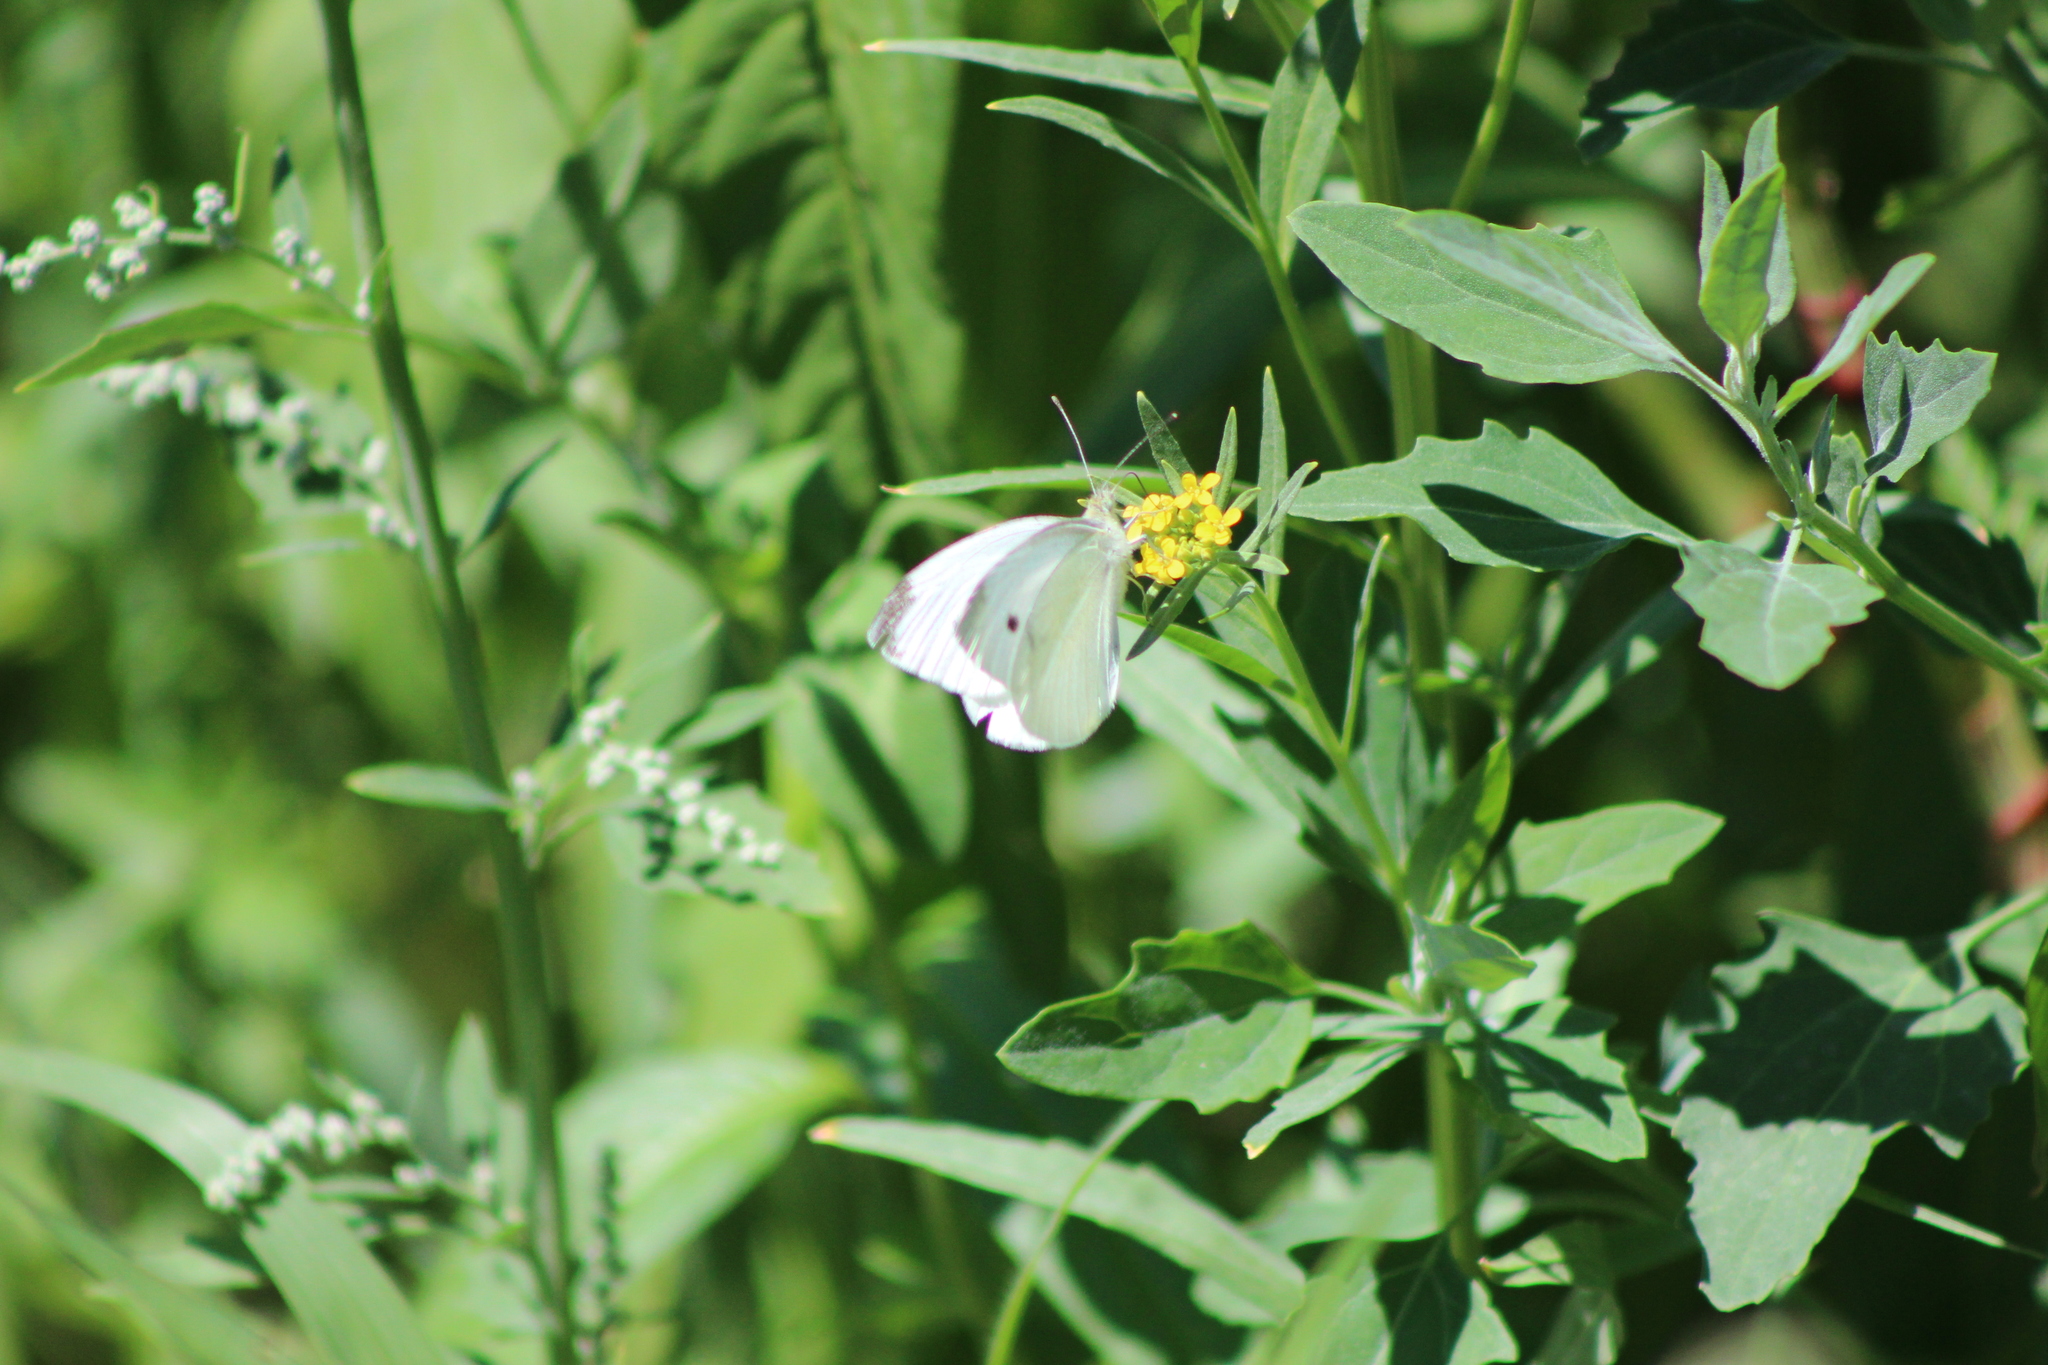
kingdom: Animalia
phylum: Arthropoda
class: Insecta
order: Lepidoptera
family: Pieridae
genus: Pieris
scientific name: Pieris rapae
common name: Small white
